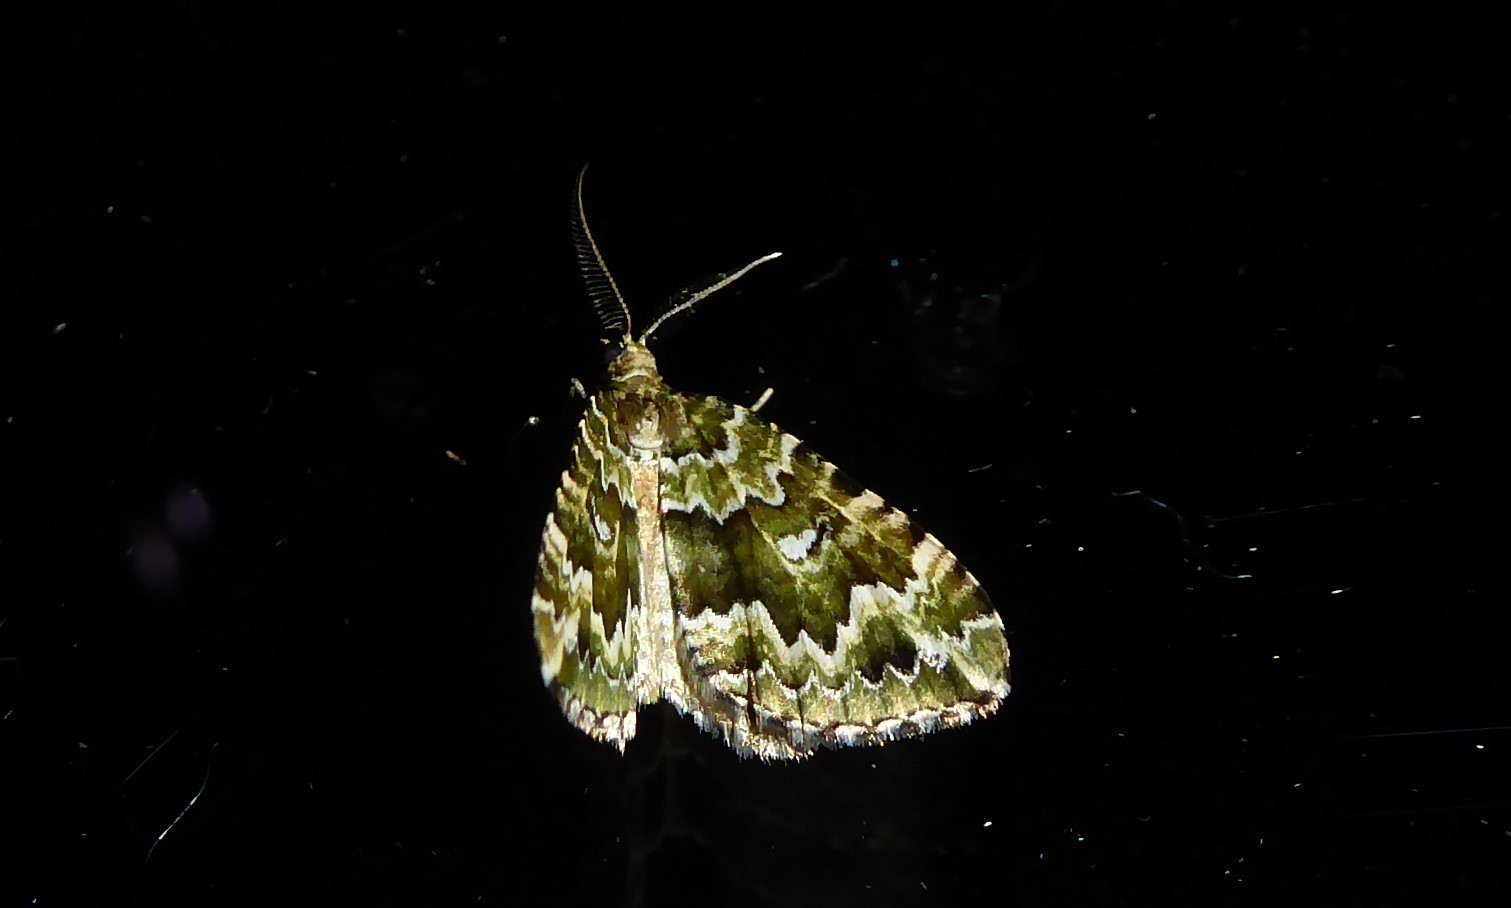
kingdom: Animalia
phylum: Arthropoda
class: Insecta
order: Lepidoptera
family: Geometridae
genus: Asaphodes
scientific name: Asaphodes beata
